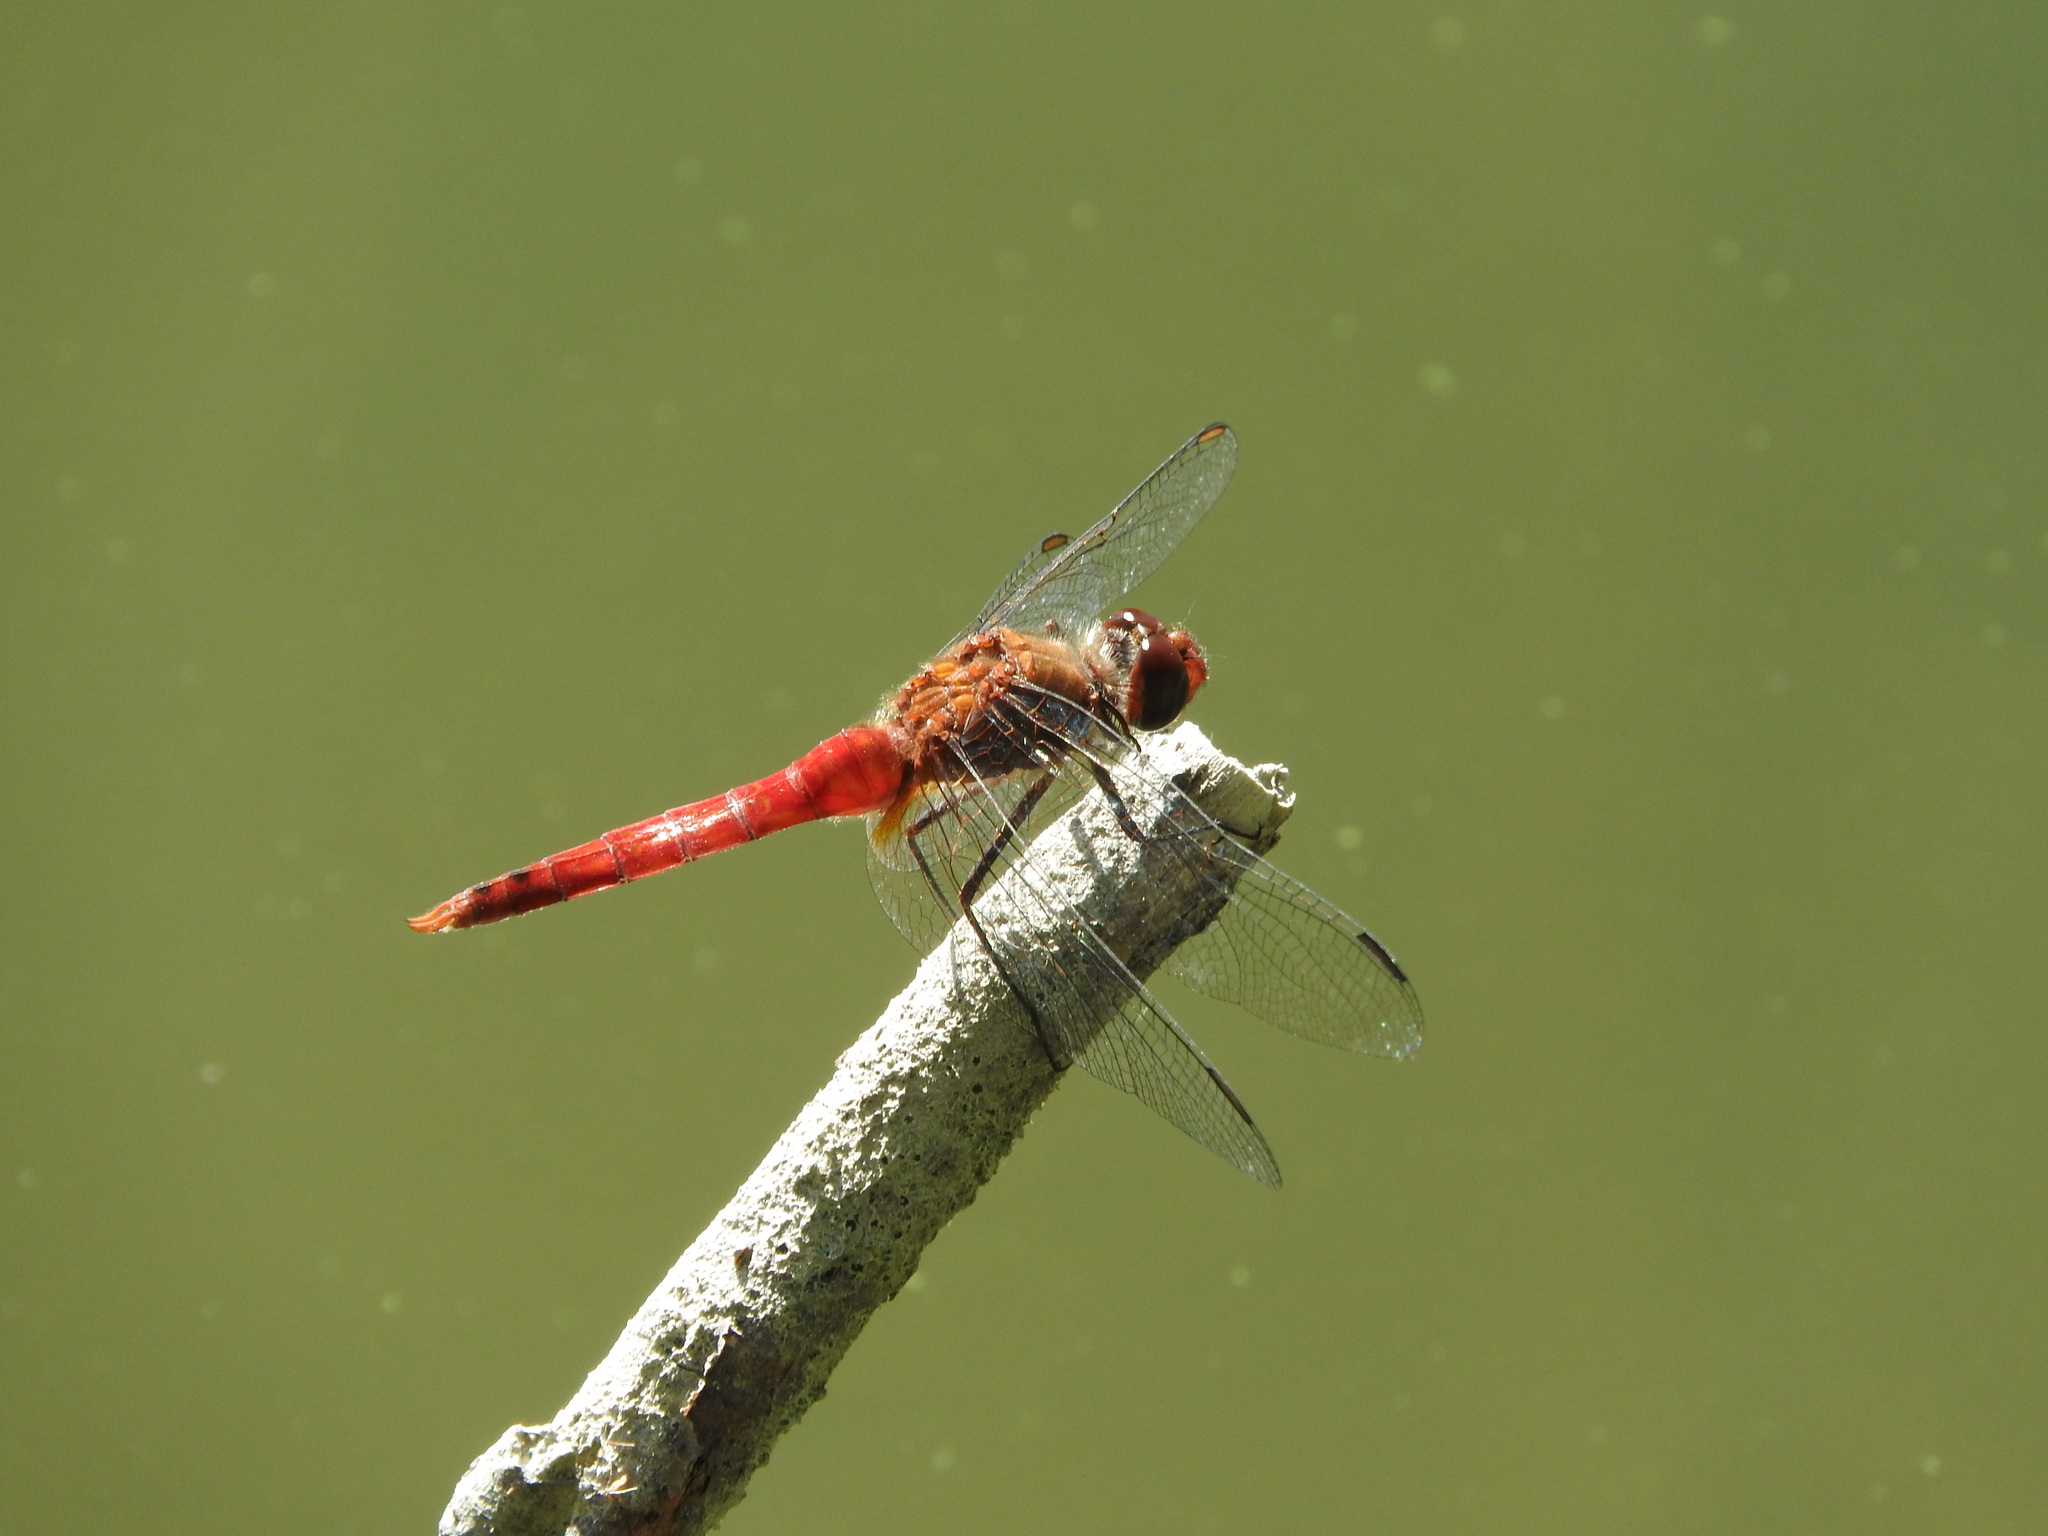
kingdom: Animalia
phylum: Arthropoda
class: Insecta
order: Odonata
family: Libellulidae
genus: Brachymesia
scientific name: Brachymesia furcata
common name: Red-taled pennant
